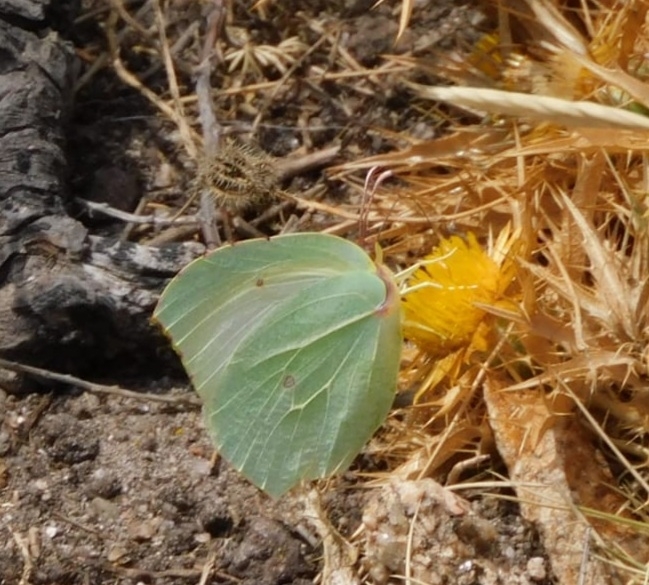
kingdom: Animalia
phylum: Arthropoda
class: Insecta
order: Lepidoptera
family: Pieridae
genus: Gonepteryx
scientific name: Gonepteryx cleopatra
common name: Cleopatra
